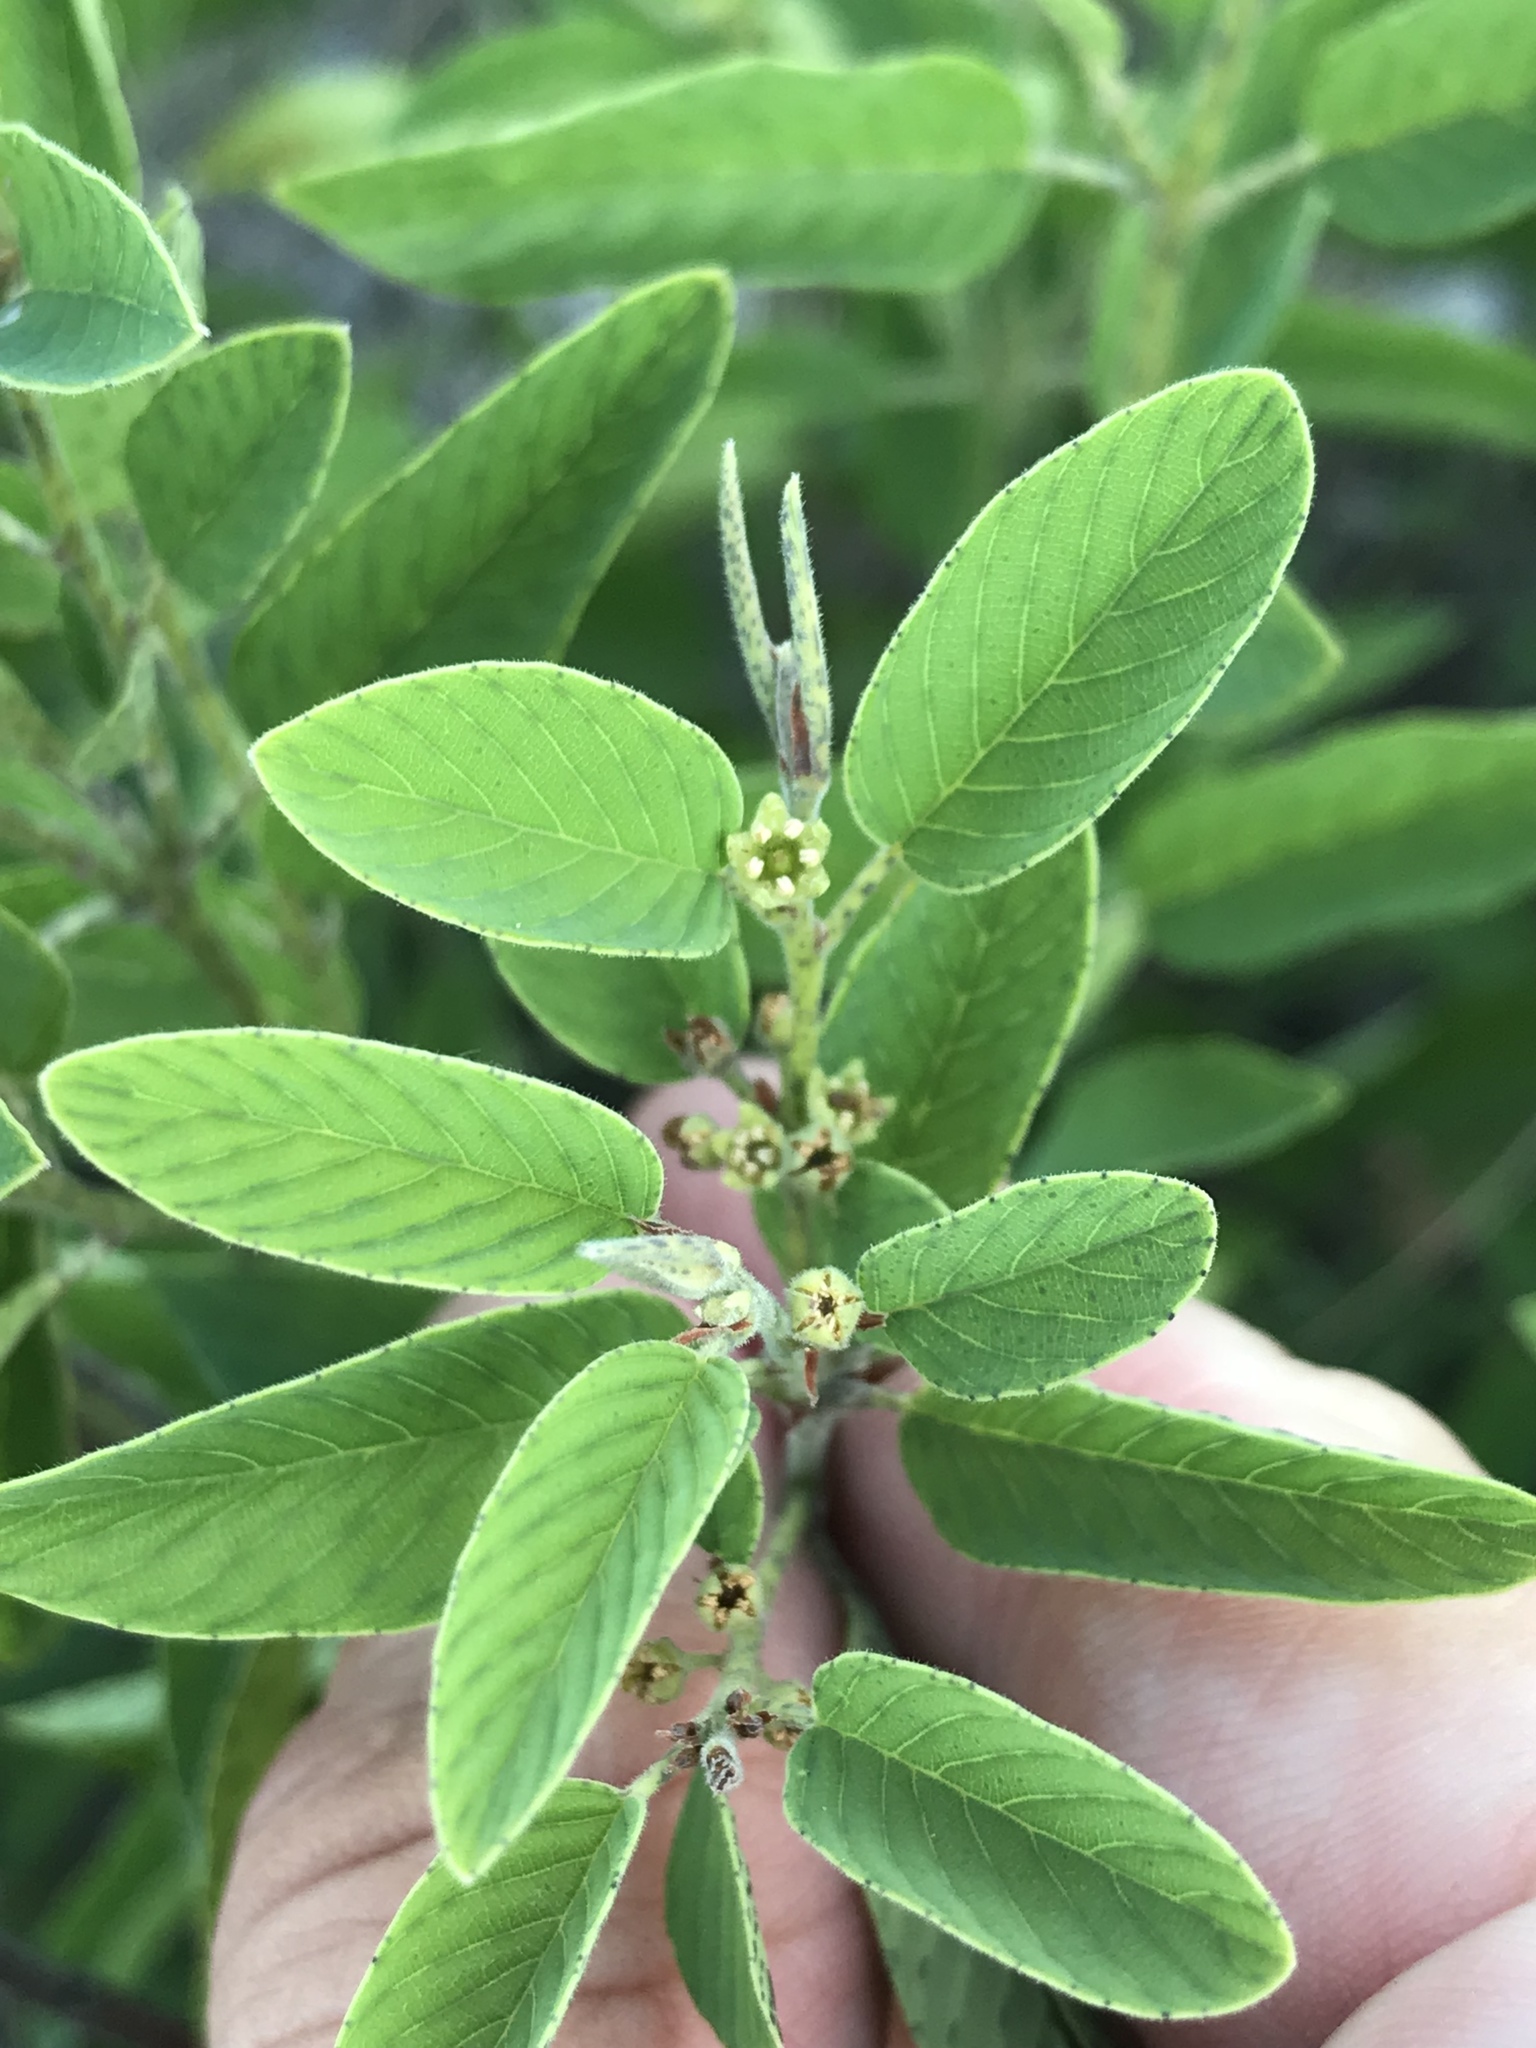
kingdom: Plantae
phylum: Tracheophyta
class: Magnoliopsida
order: Rosales
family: Rhamnaceae
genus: Karwinskia
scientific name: Karwinskia humboldtiana
